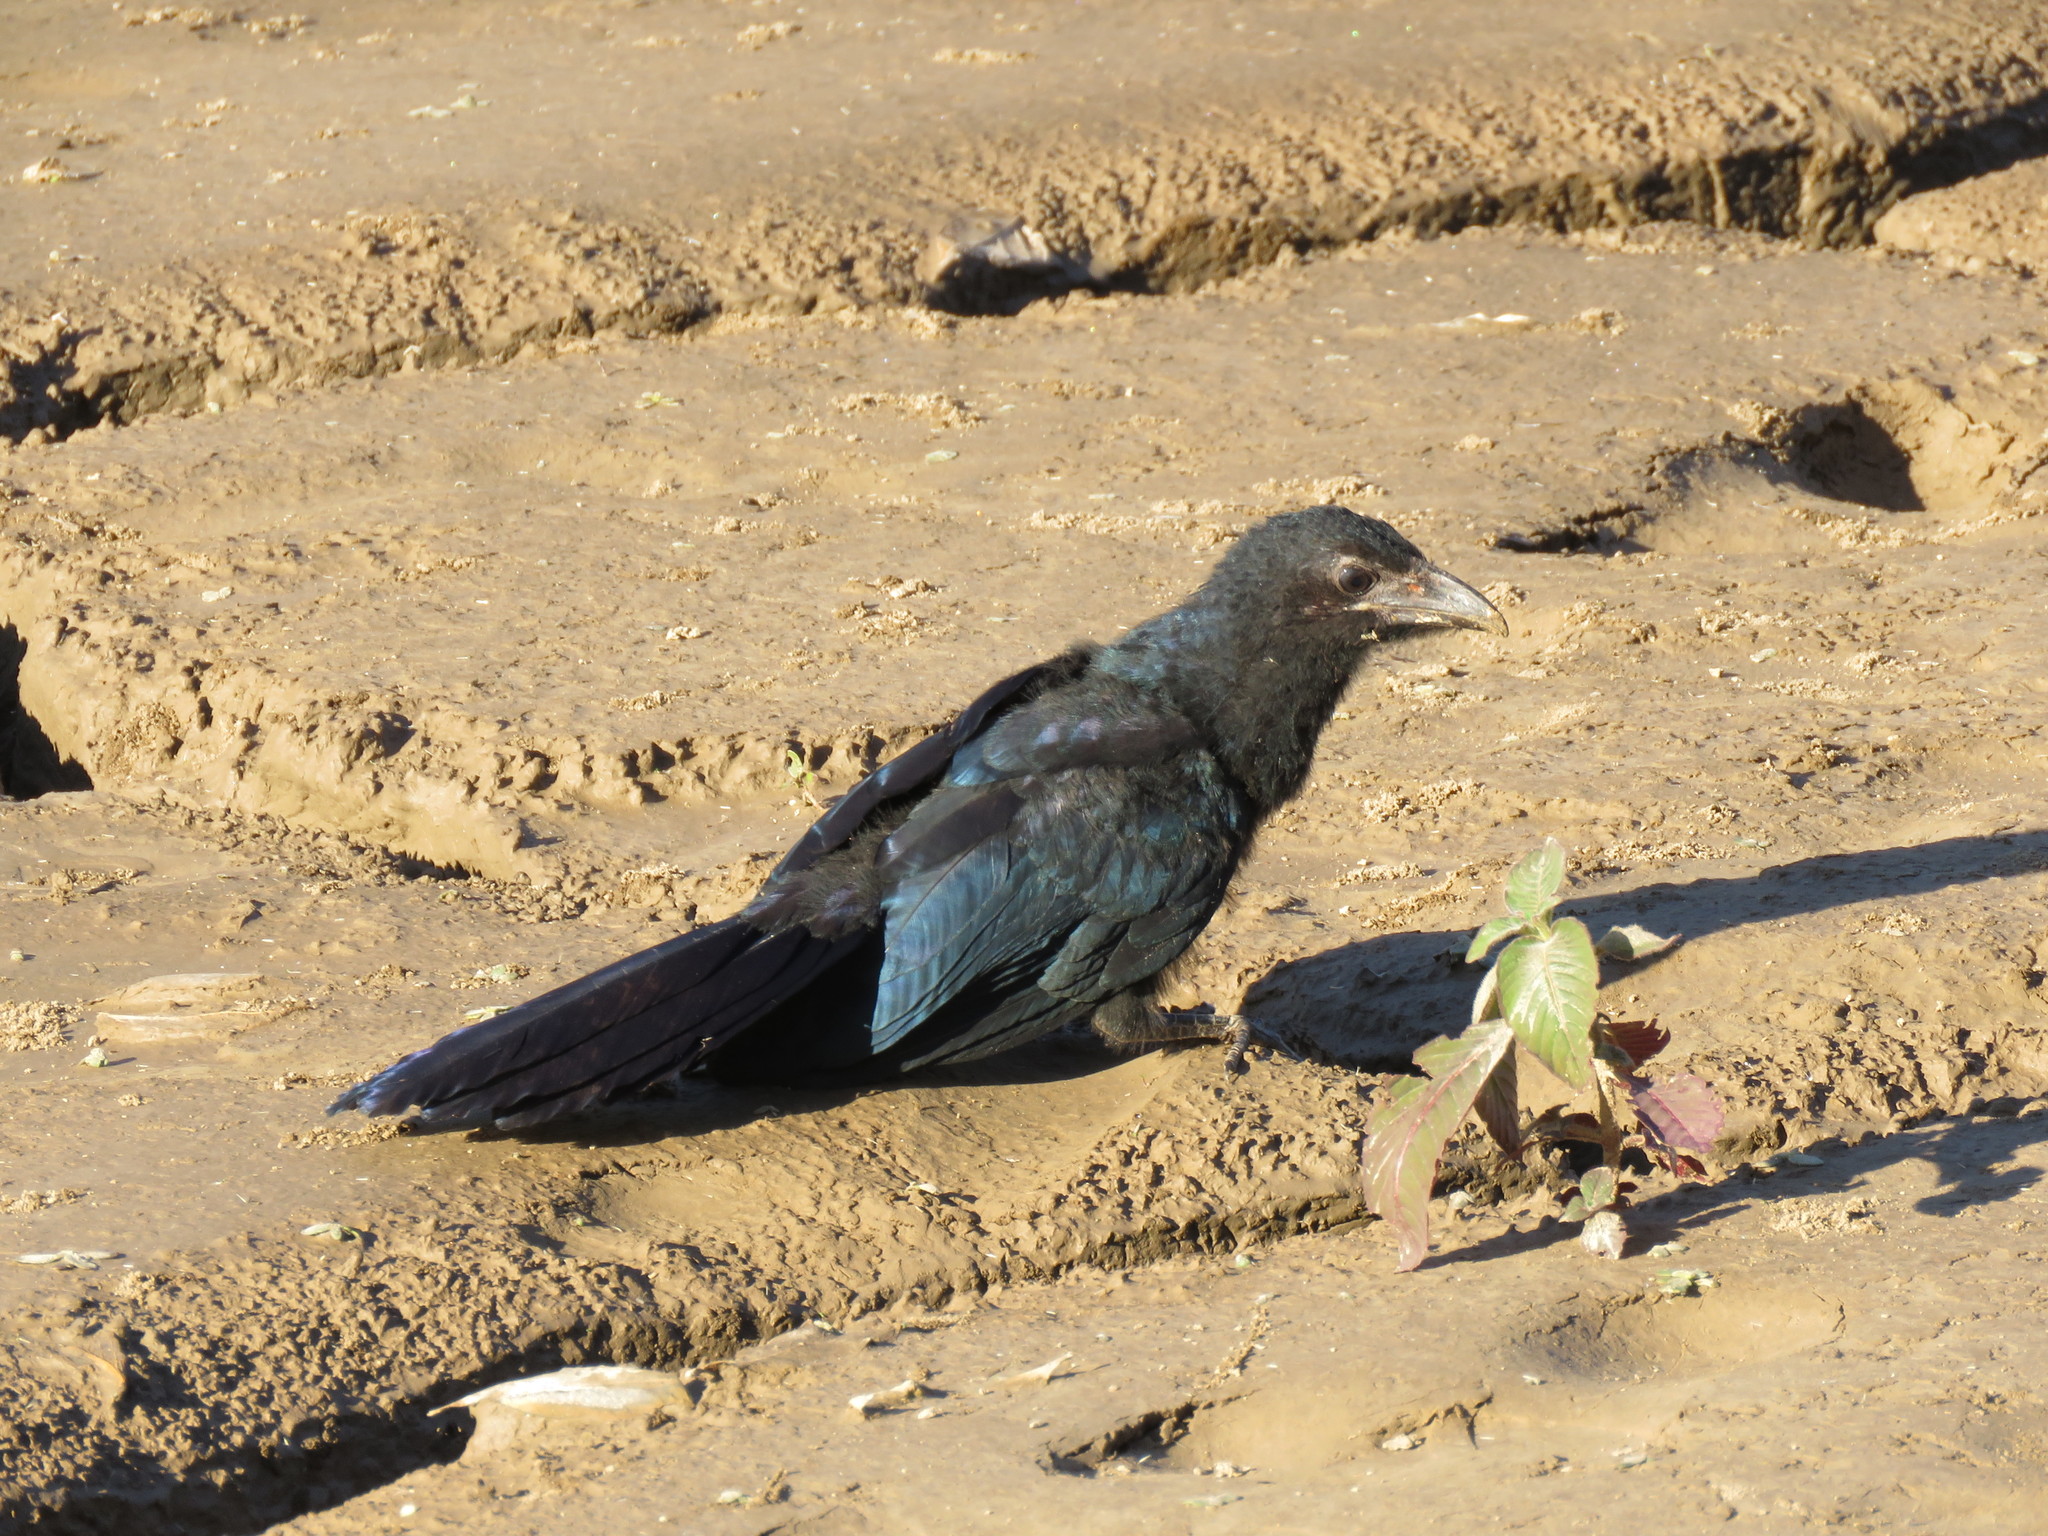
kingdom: Animalia
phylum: Chordata
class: Aves
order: Cuculiformes
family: Cuculidae
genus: Crotophaga
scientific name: Crotophaga major
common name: Greater ani
